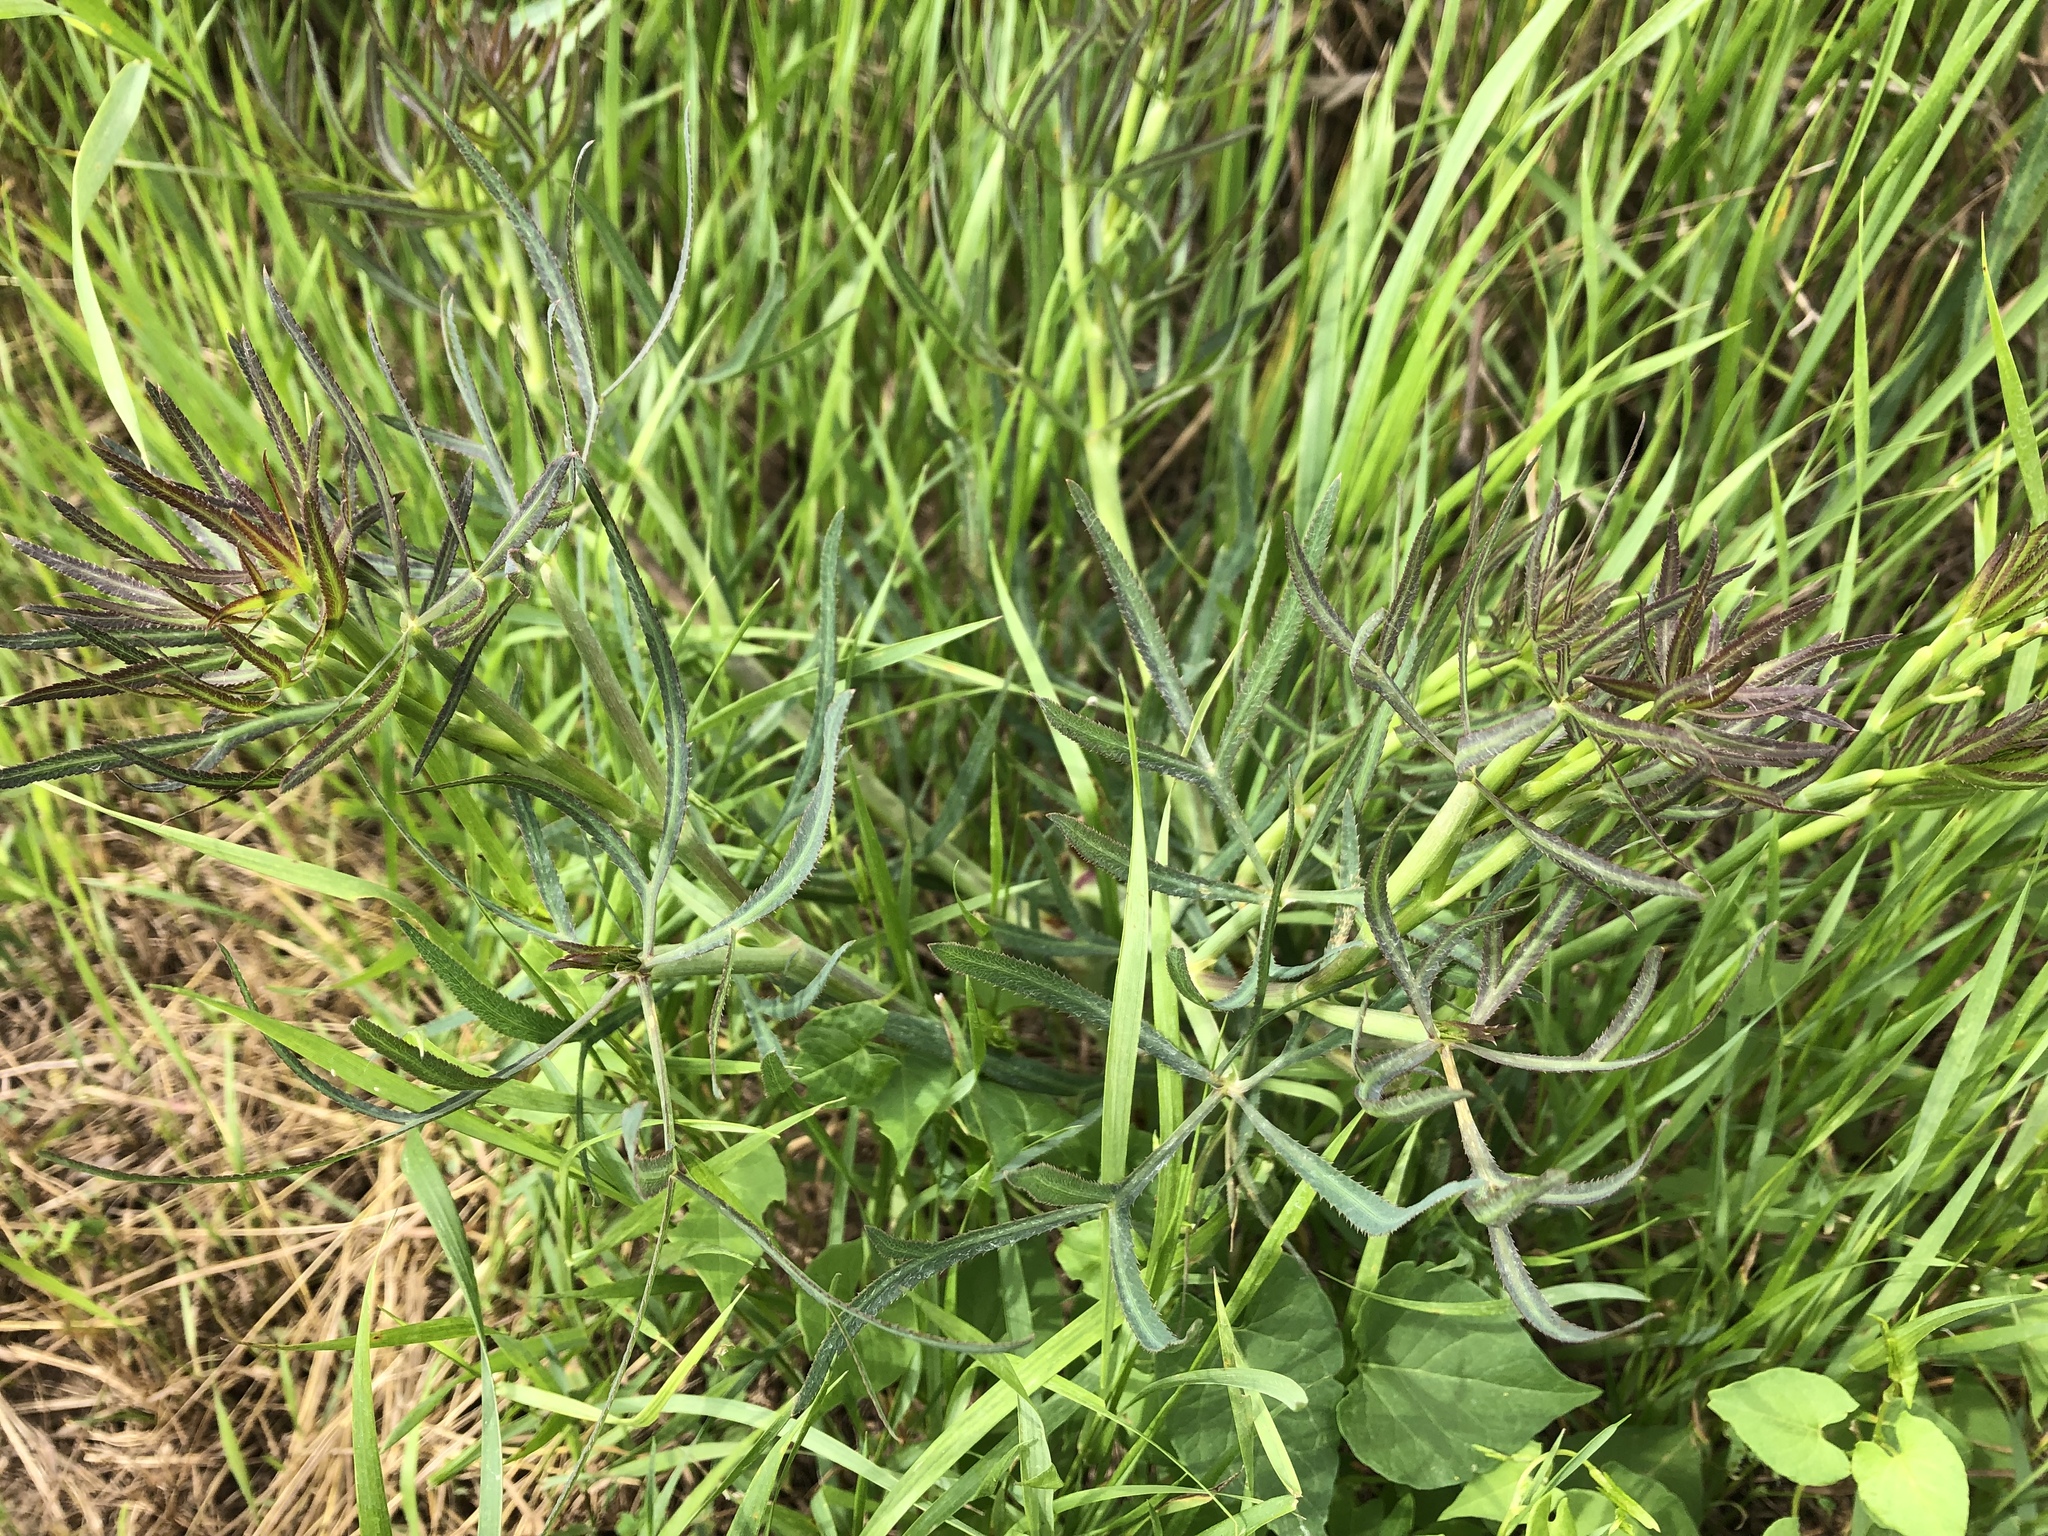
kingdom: Plantae
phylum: Tracheophyta
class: Magnoliopsida
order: Apiales
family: Apiaceae
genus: Falcaria
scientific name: Falcaria vulgaris
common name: Longleaf
